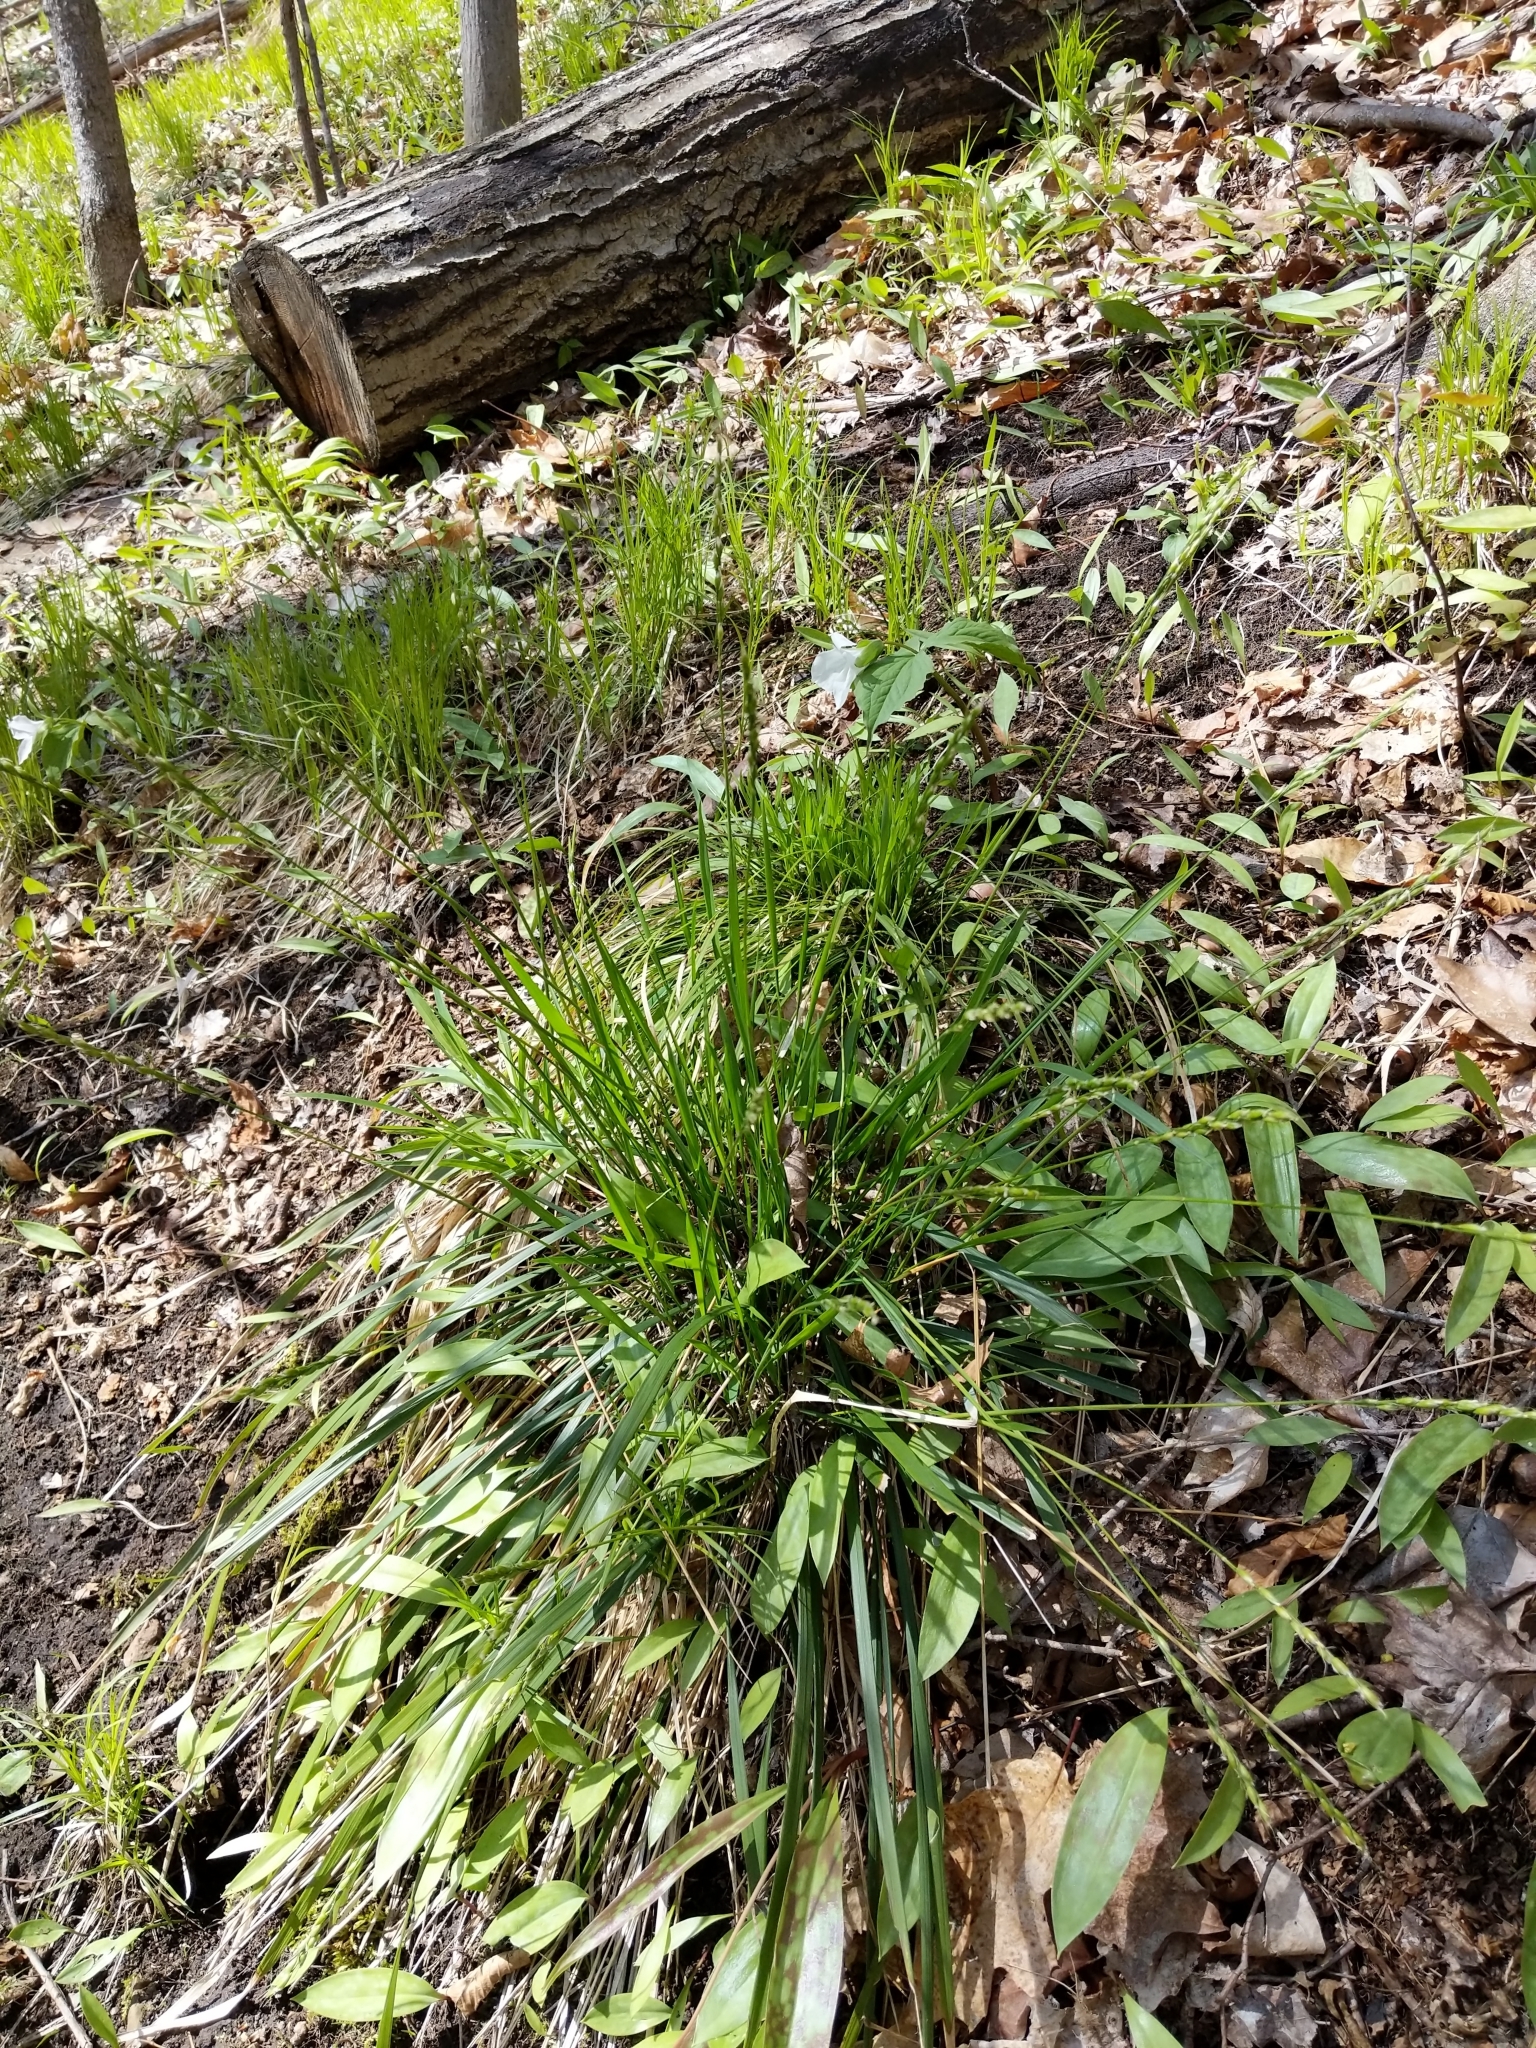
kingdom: Plantae
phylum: Tracheophyta
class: Liliopsida
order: Poales
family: Poaceae
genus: Oryzopsis
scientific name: Oryzopsis asperifolia
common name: Rough-leaved mountain rice
